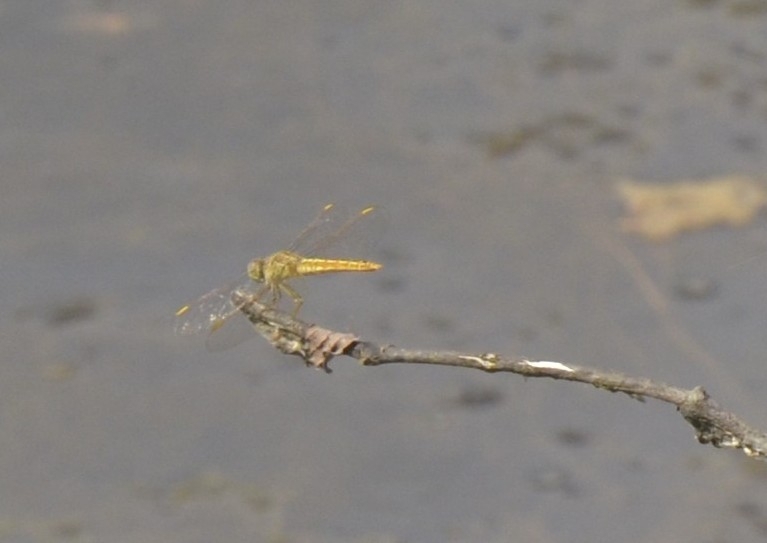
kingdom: Animalia
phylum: Arthropoda
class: Insecta
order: Odonata
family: Libellulidae
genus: Brachythemis
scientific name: Brachythemis contaminata
